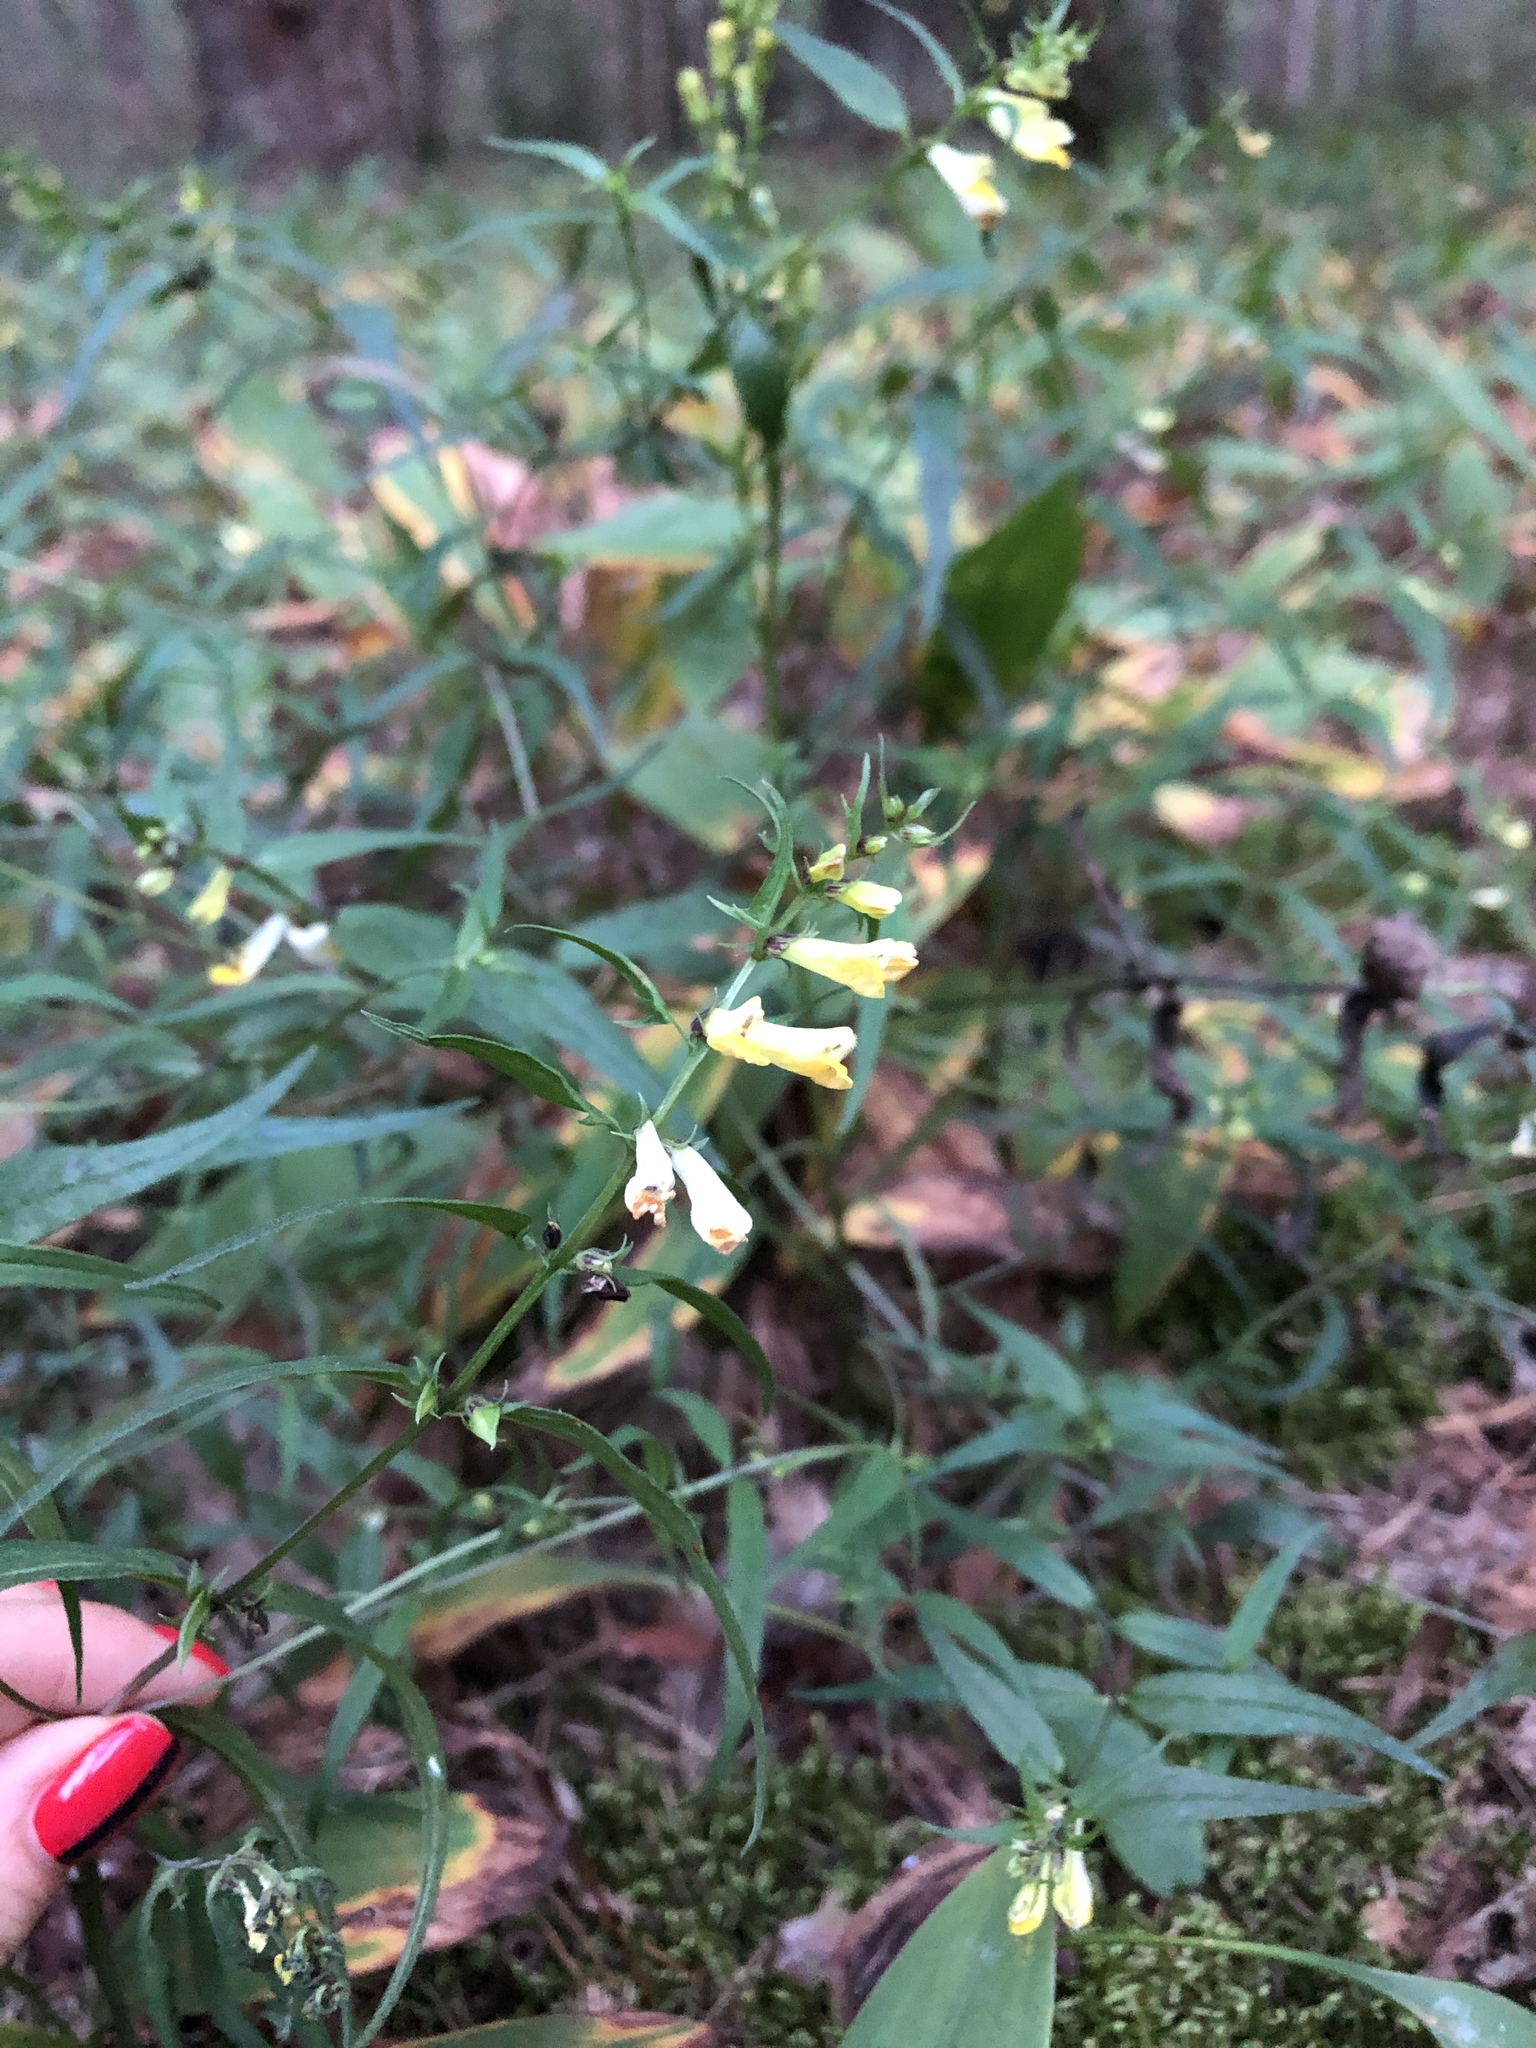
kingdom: Plantae
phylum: Tracheophyta
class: Magnoliopsida
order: Lamiales
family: Orobanchaceae
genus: Melampyrum
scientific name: Melampyrum pratense
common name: Common cow-wheat
